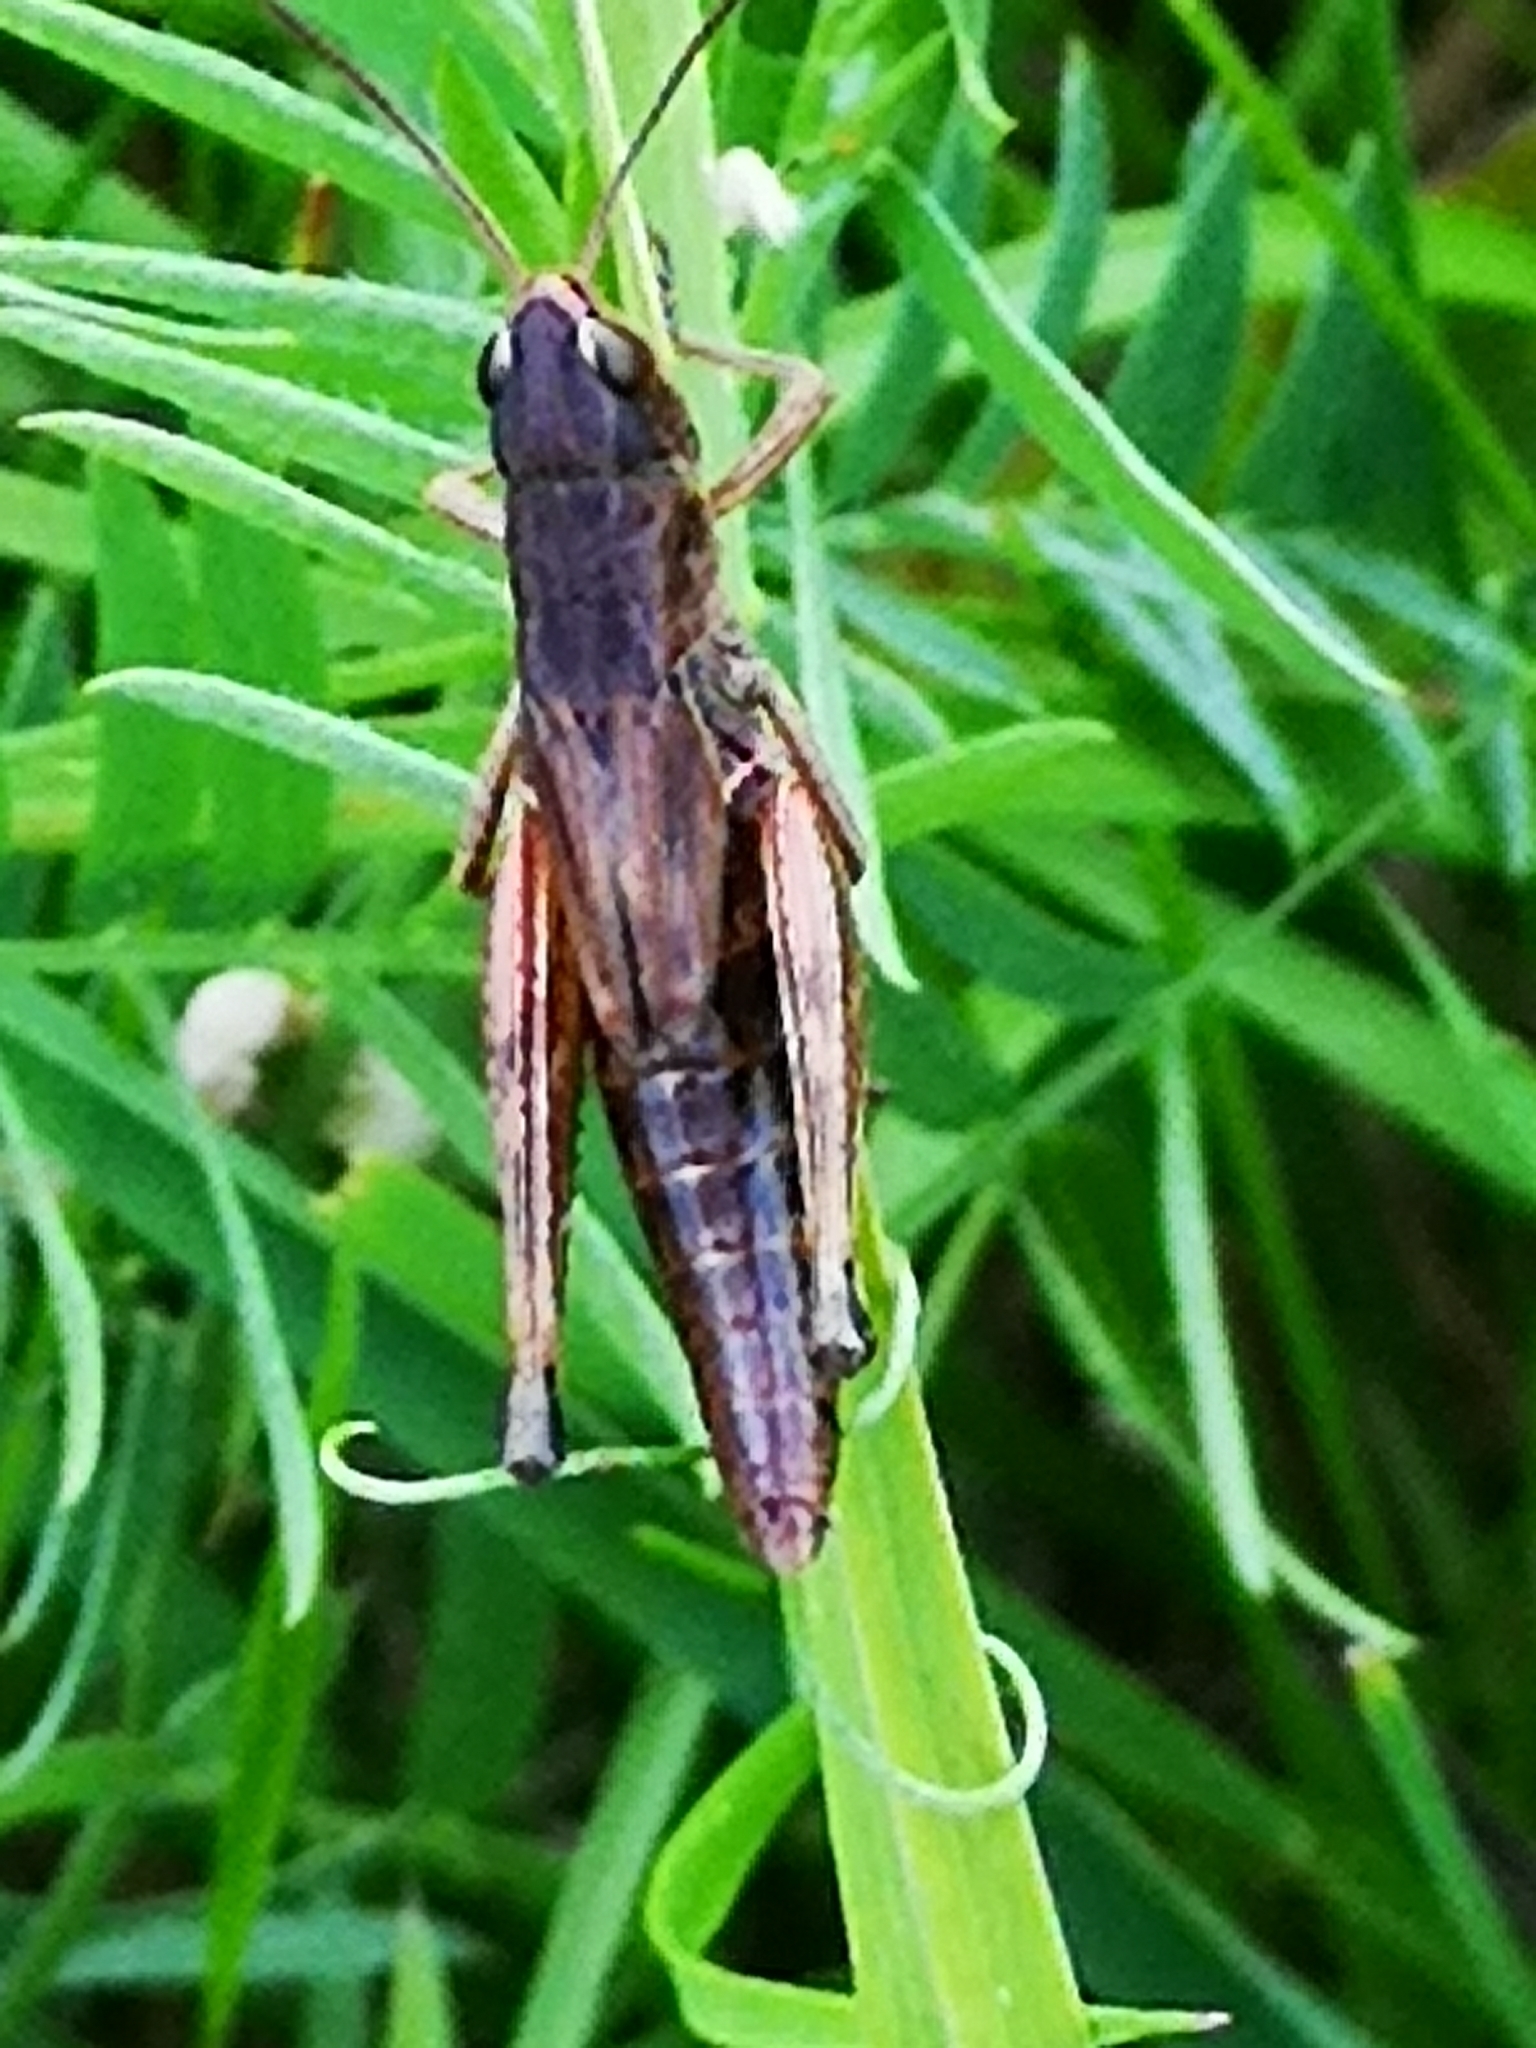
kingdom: Animalia
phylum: Arthropoda
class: Insecta
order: Orthoptera
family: Acrididae
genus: Pseudochorthippus
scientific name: Pseudochorthippus parallelus
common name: Meadow grasshopper
